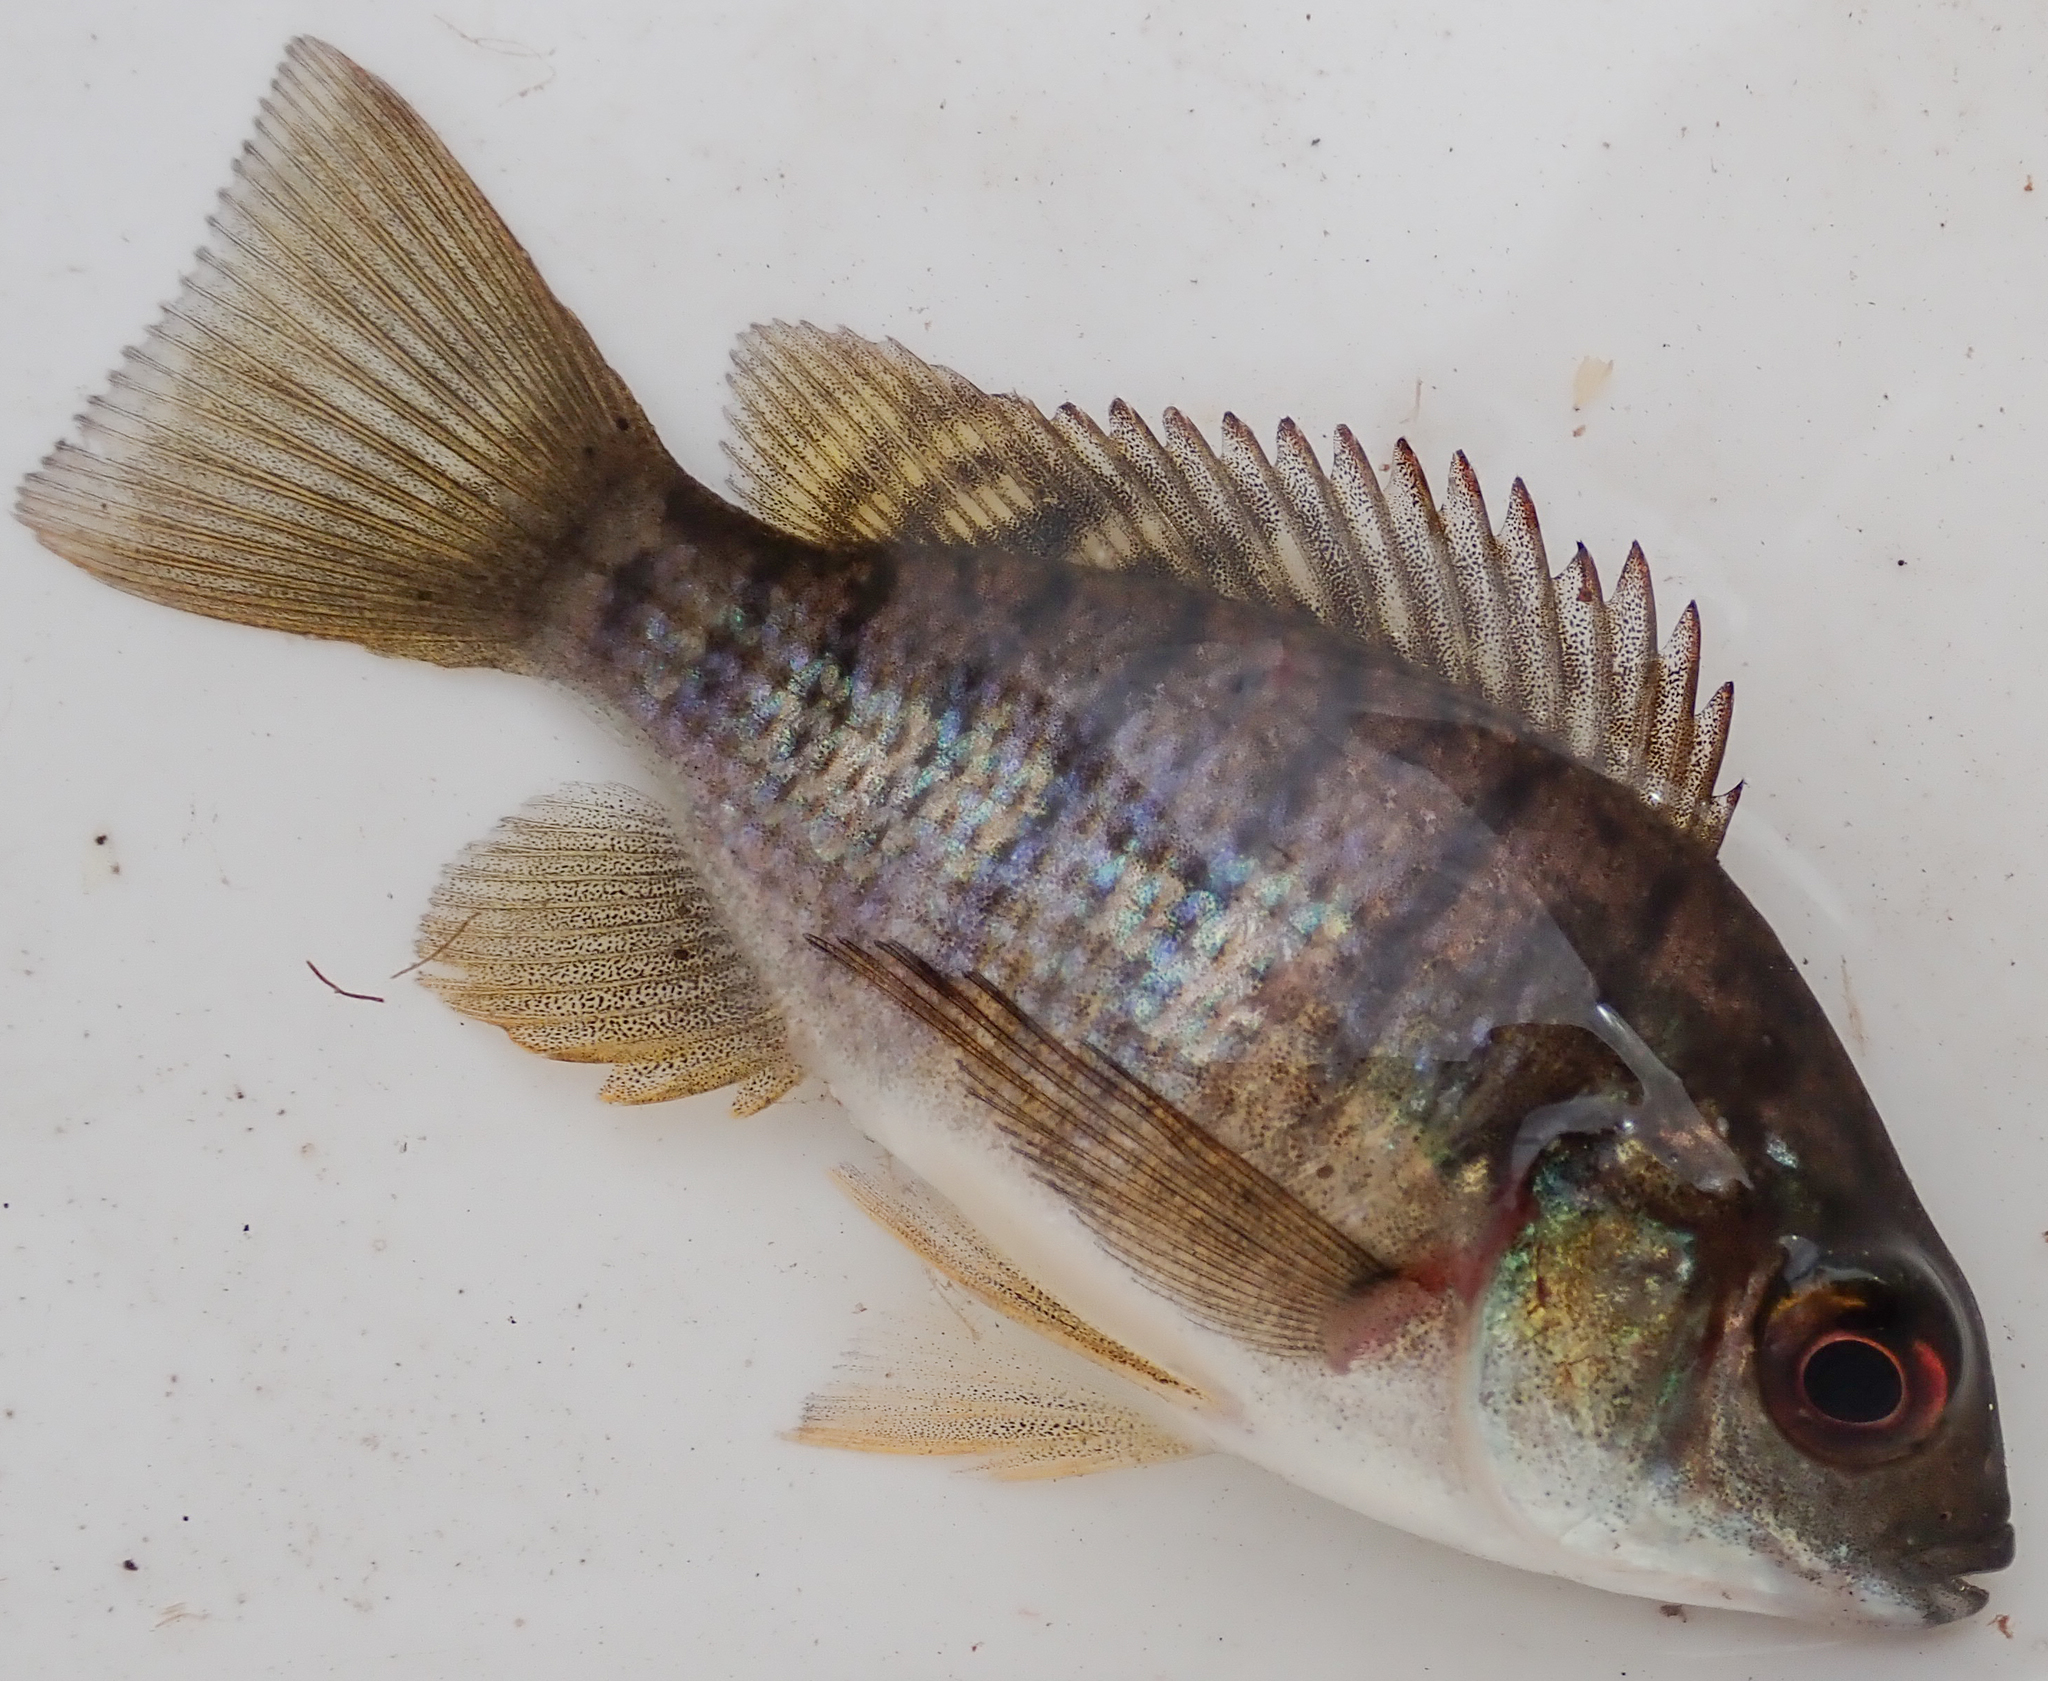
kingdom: Animalia
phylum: Chordata
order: Perciformes
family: Cichlidae
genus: Oreochromis
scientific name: Oreochromis macrochir
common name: Greenhead tilapia
